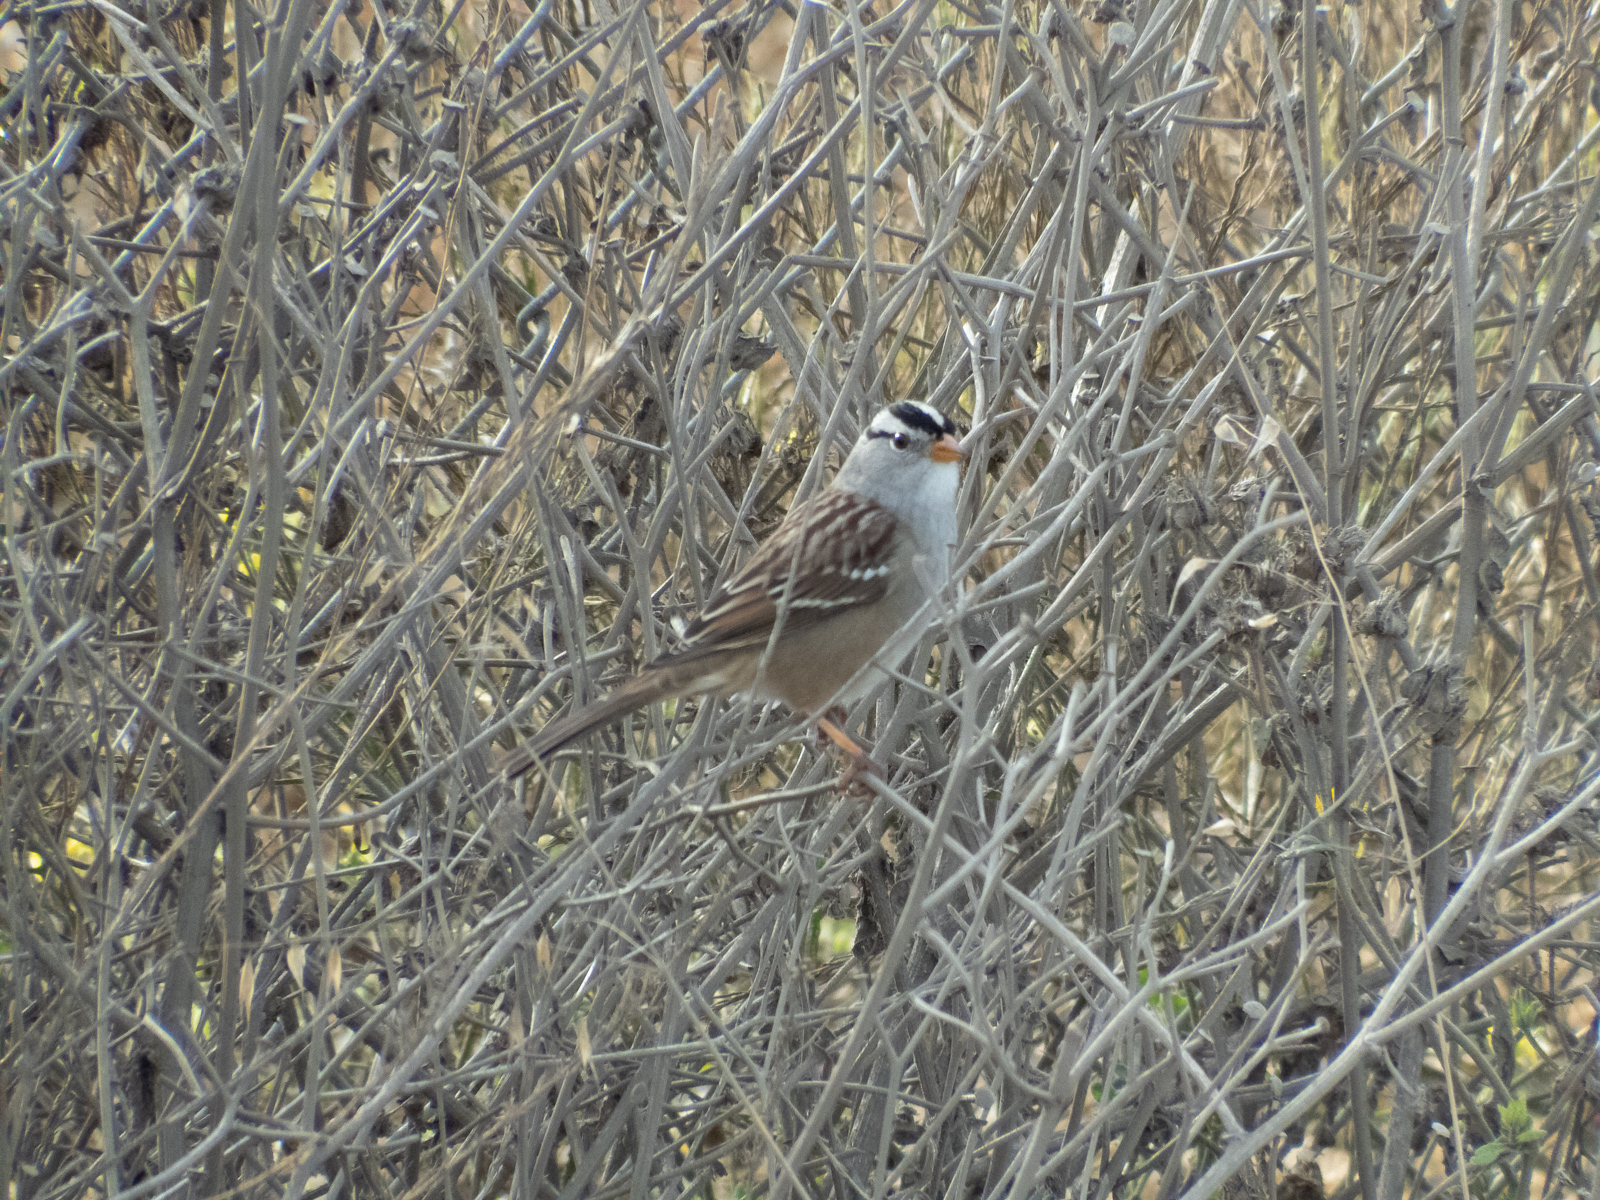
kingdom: Animalia
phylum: Chordata
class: Aves
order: Passeriformes
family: Passerellidae
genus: Zonotrichia
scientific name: Zonotrichia leucophrys
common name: White-crowned sparrow
